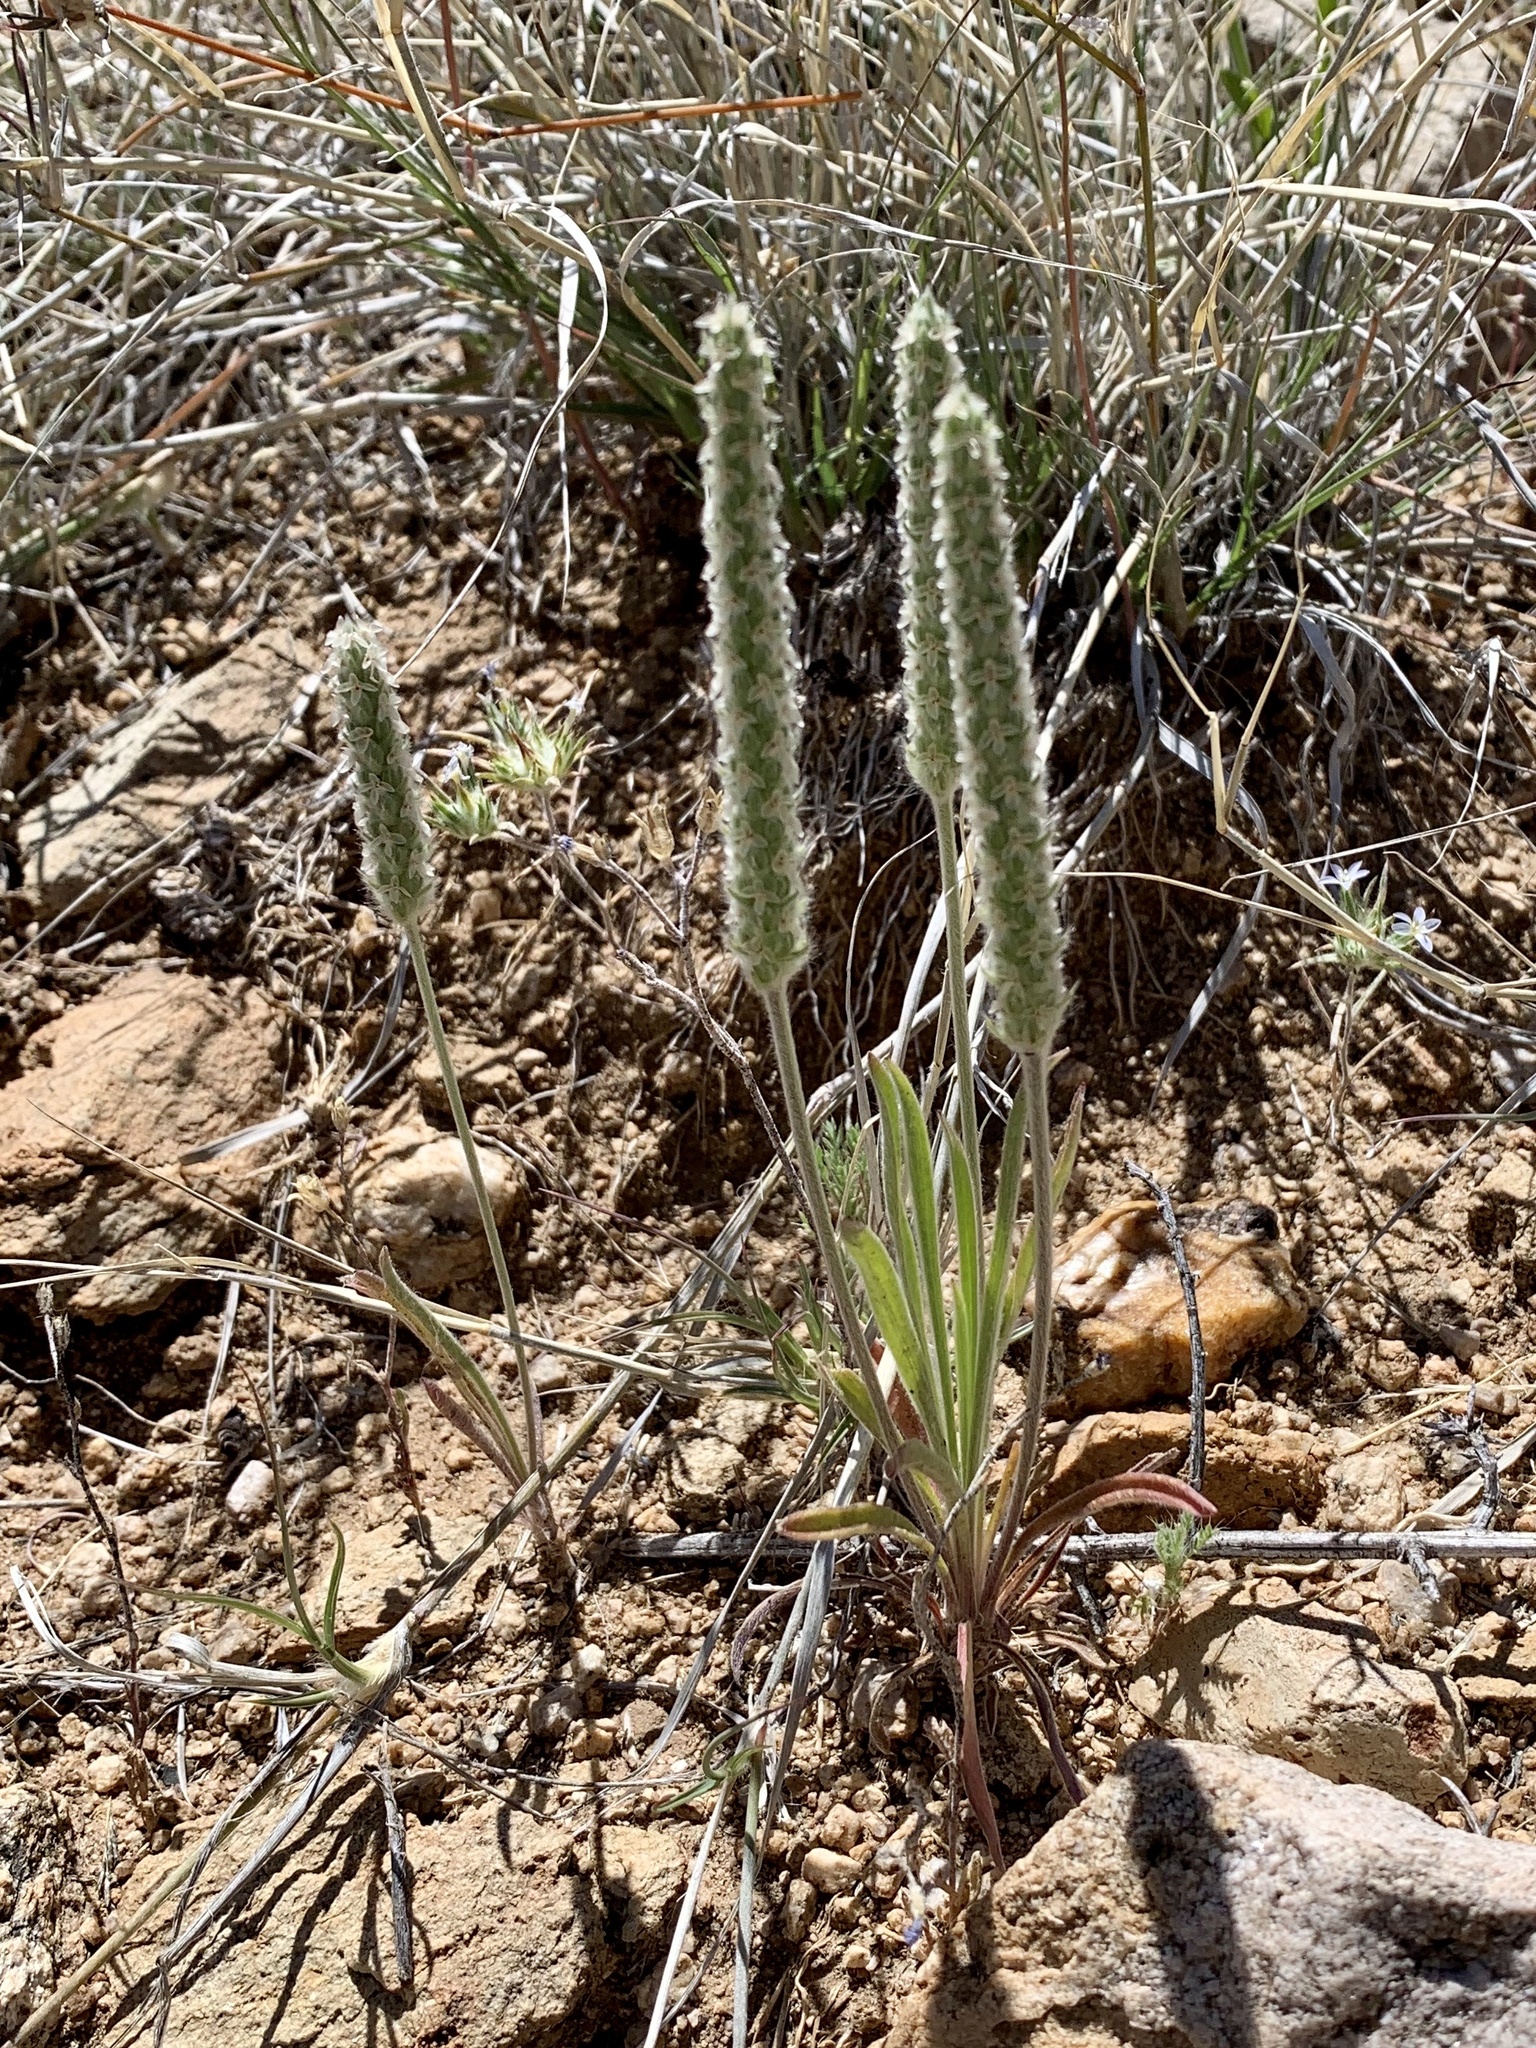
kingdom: Plantae
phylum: Tracheophyta
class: Magnoliopsida
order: Lamiales
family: Plantaginaceae
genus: Plantago
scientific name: Plantago patagonica
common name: Patagonia indian-wheat
